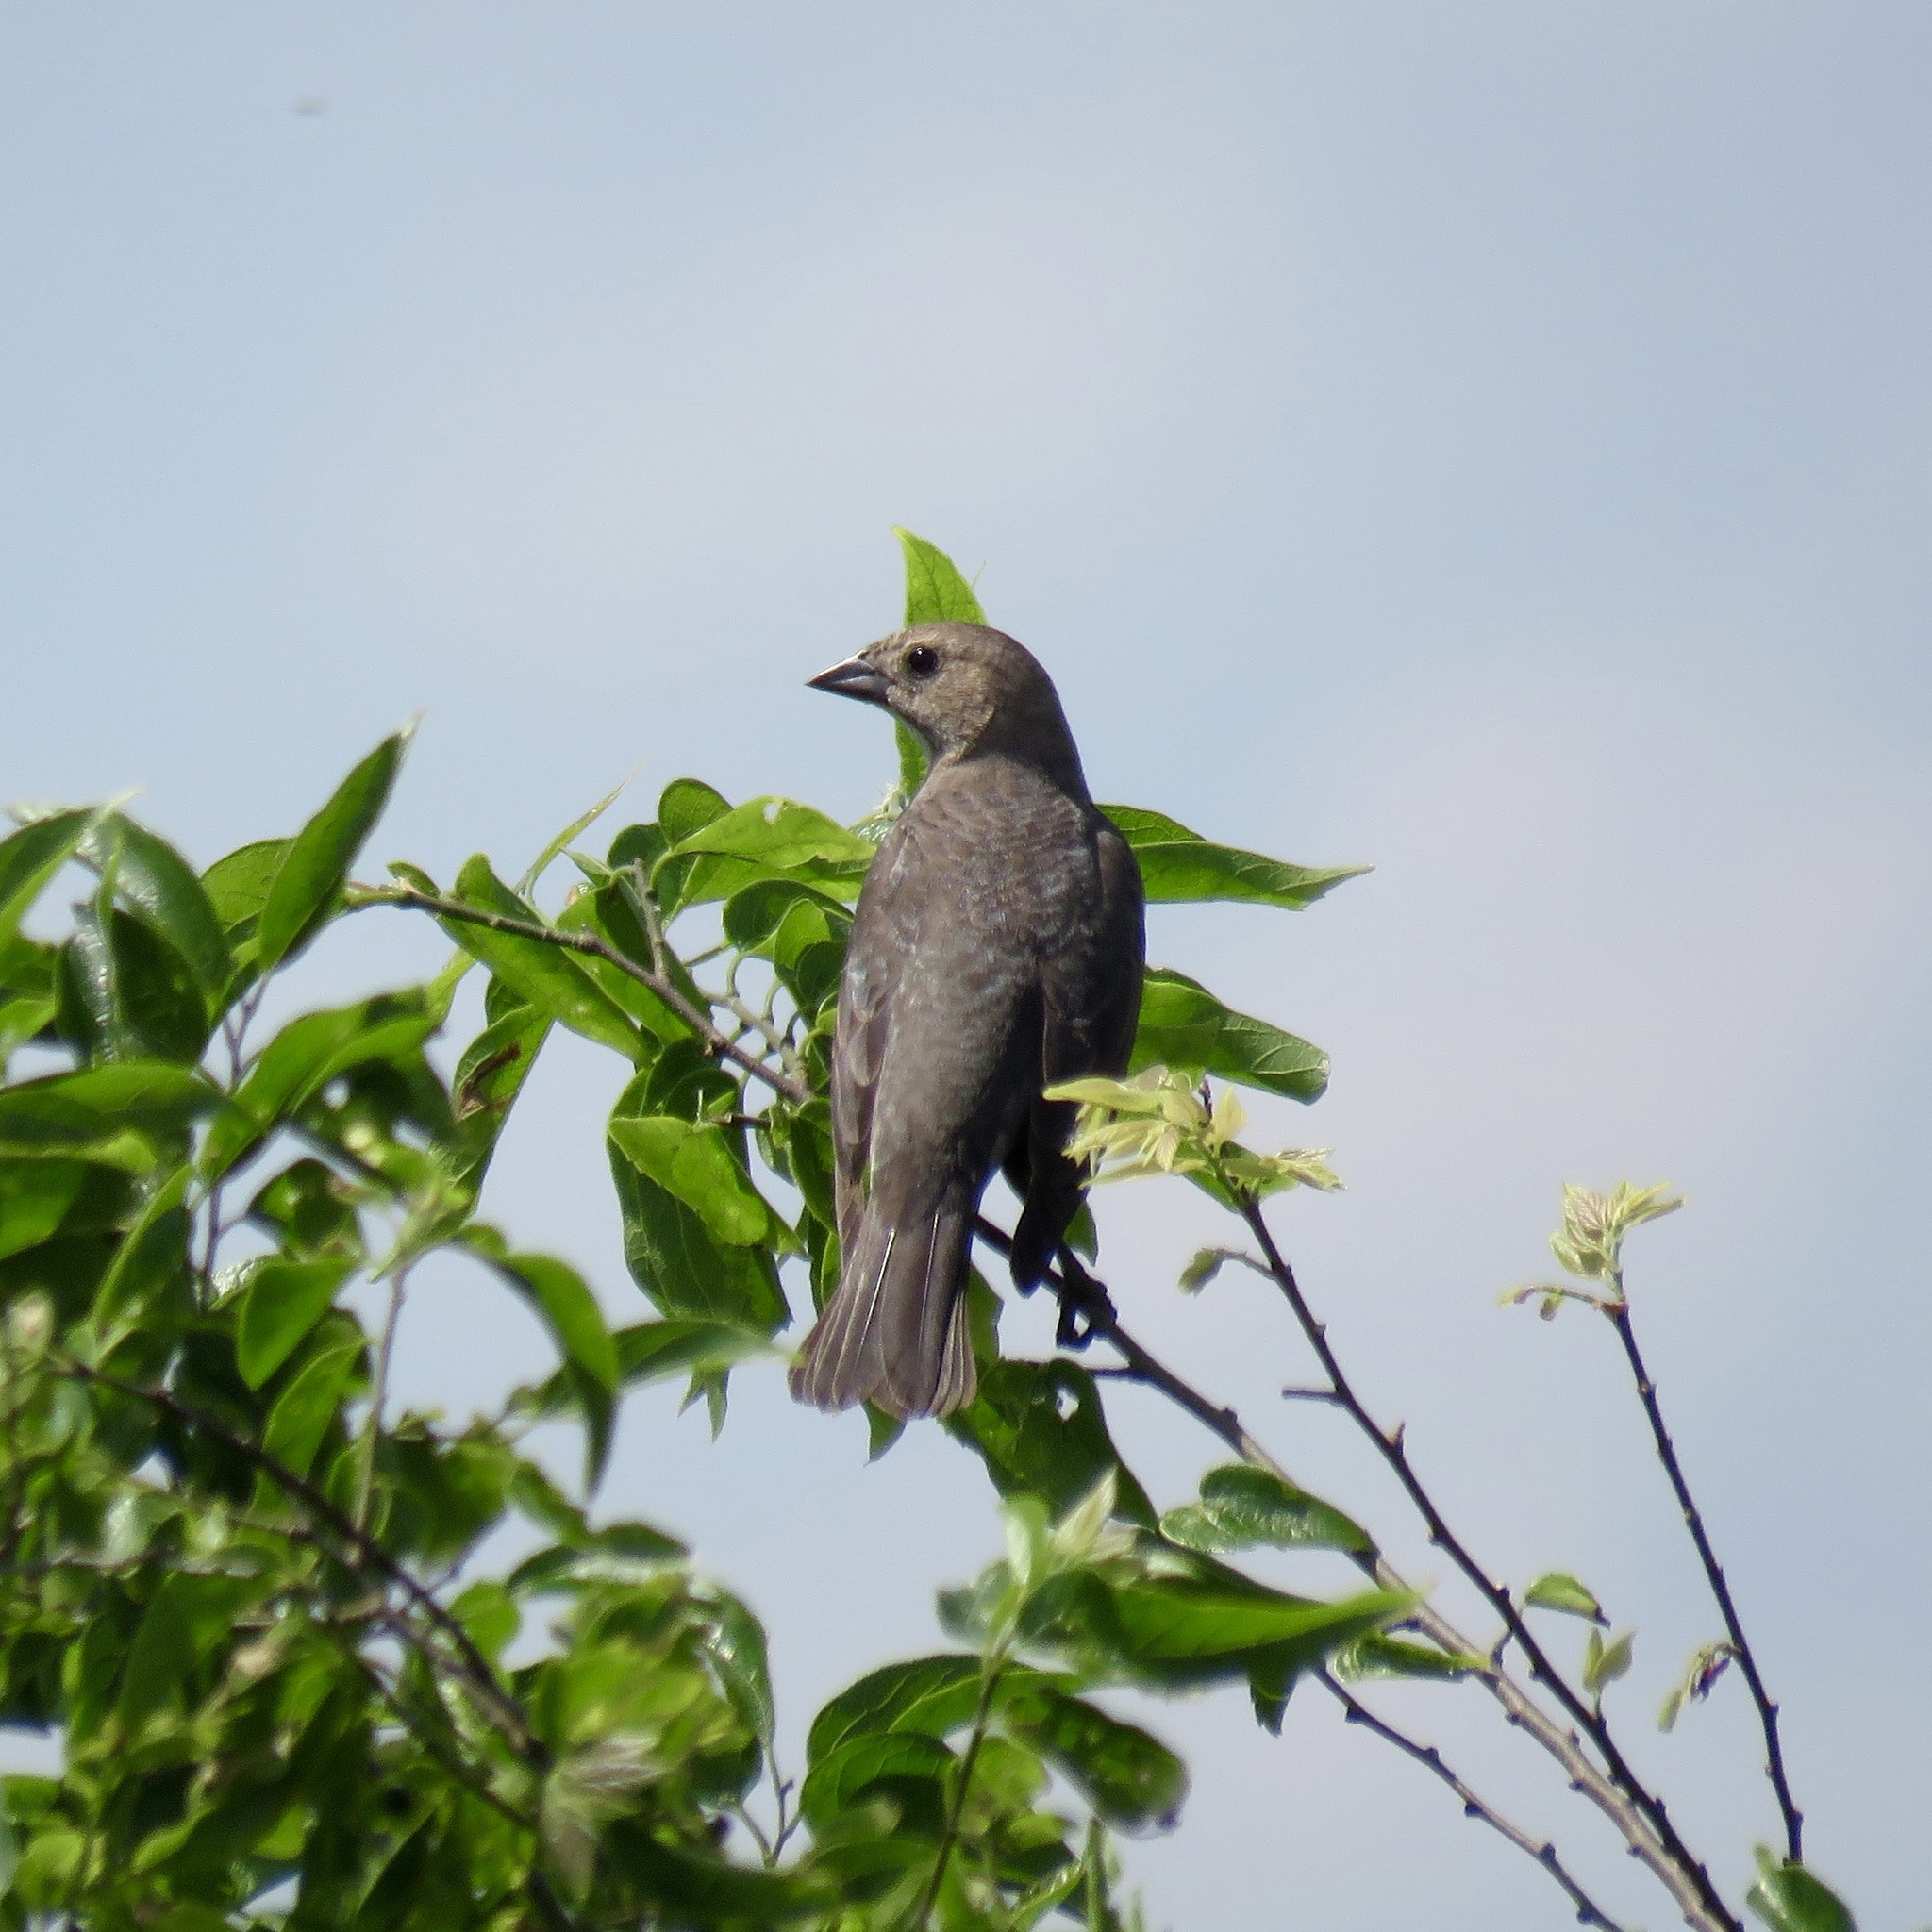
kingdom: Animalia
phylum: Chordata
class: Aves
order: Passeriformes
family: Icteridae
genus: Molothrus
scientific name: Molothrus ater
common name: Brown-headed cowbird
